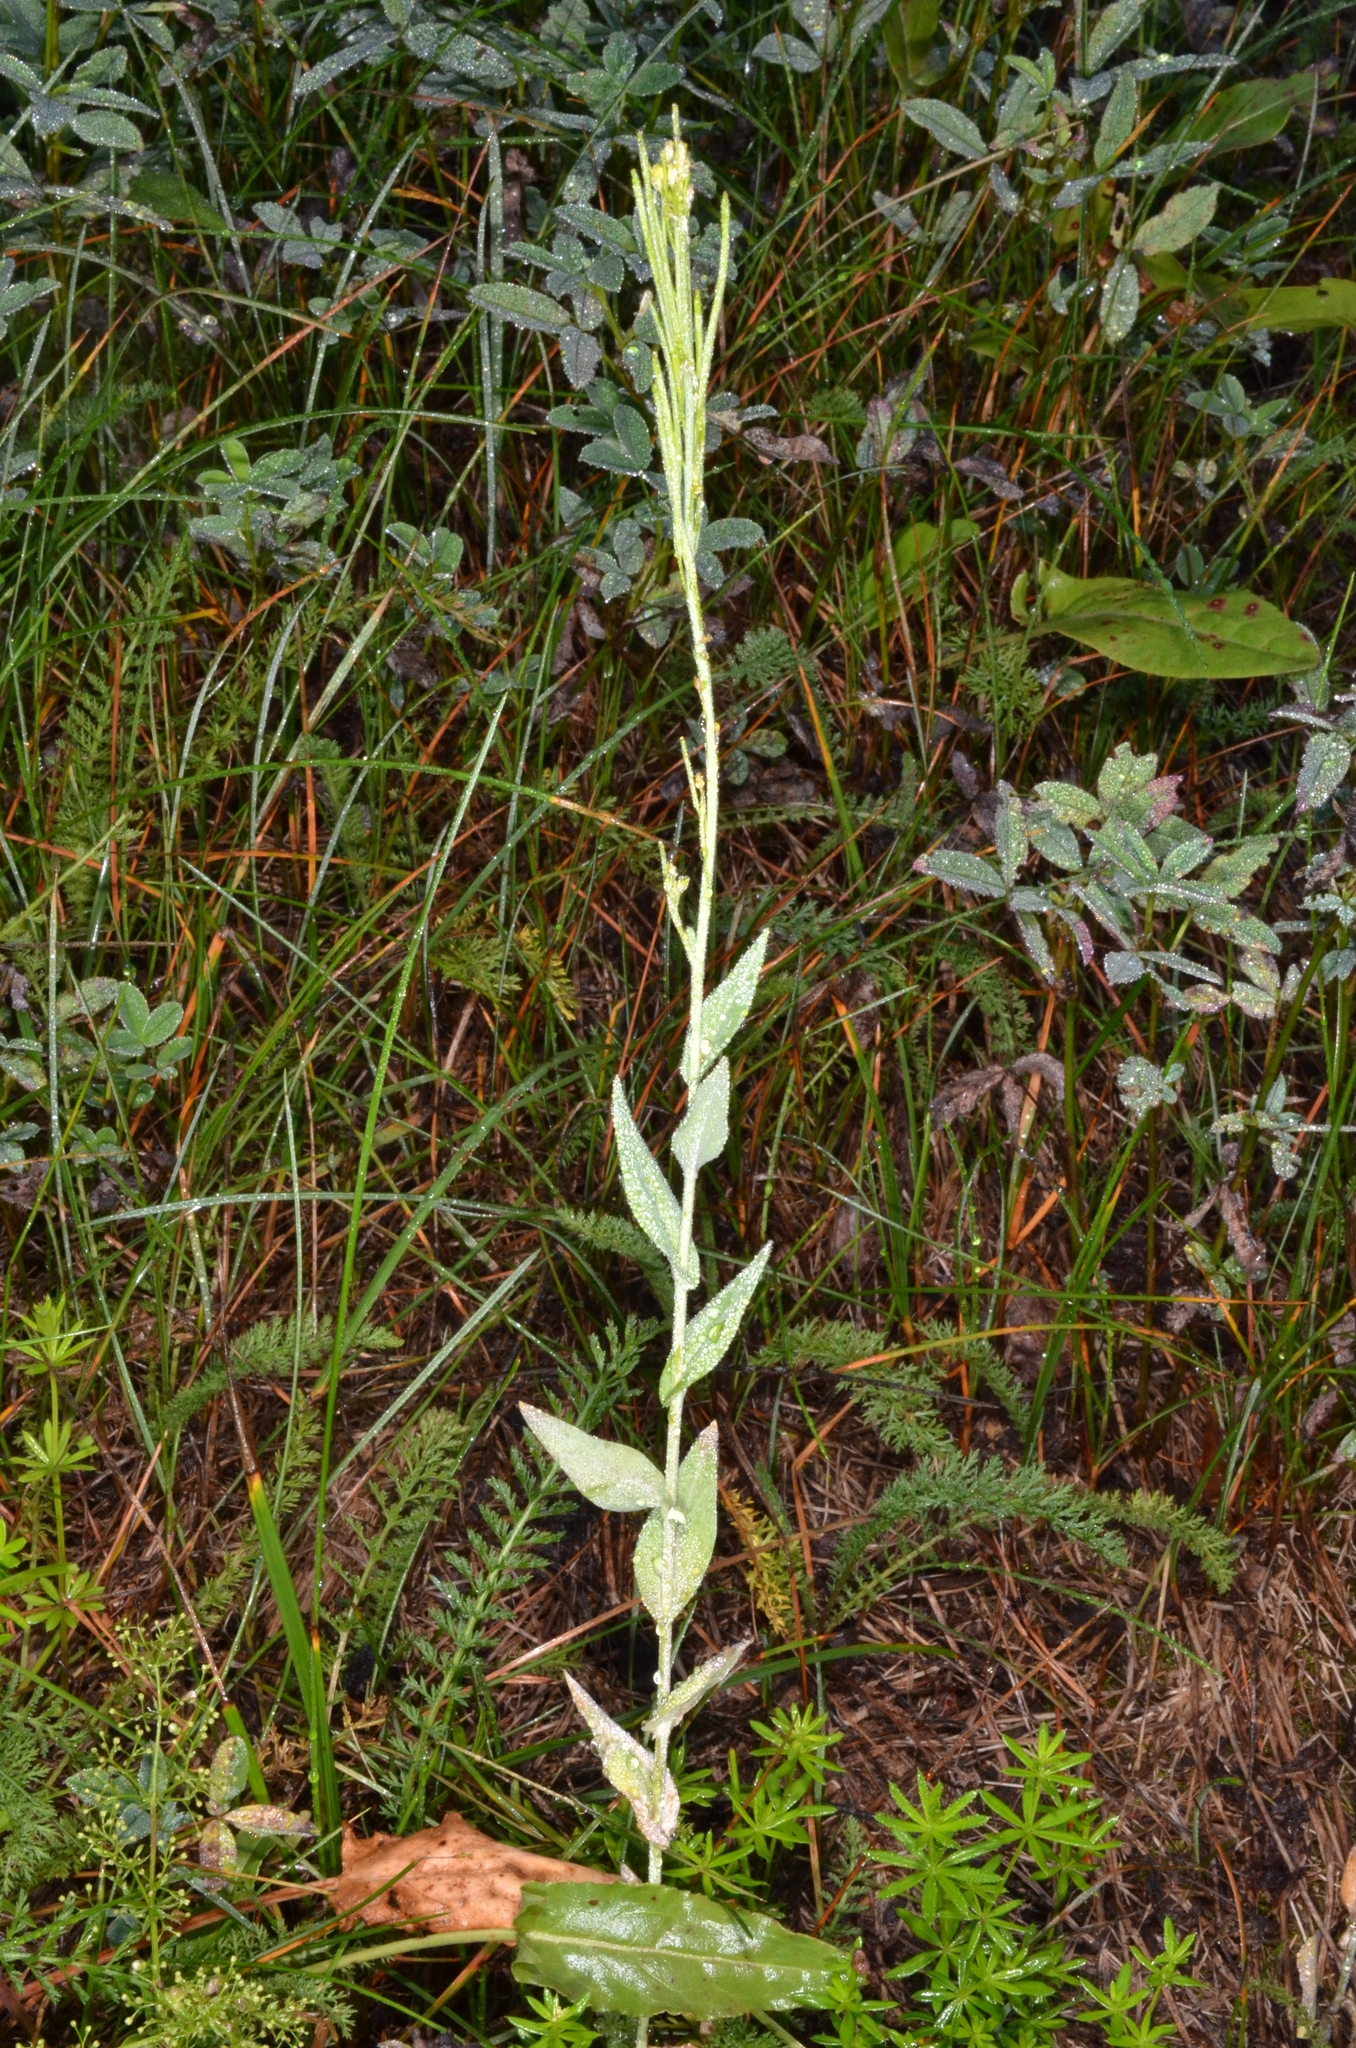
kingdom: Plantae
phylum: Tracheophyta
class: Magnoliopsida
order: Brassicales
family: Brassicaceae
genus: Turritis
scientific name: Turritis glabra
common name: Tower rockcress
